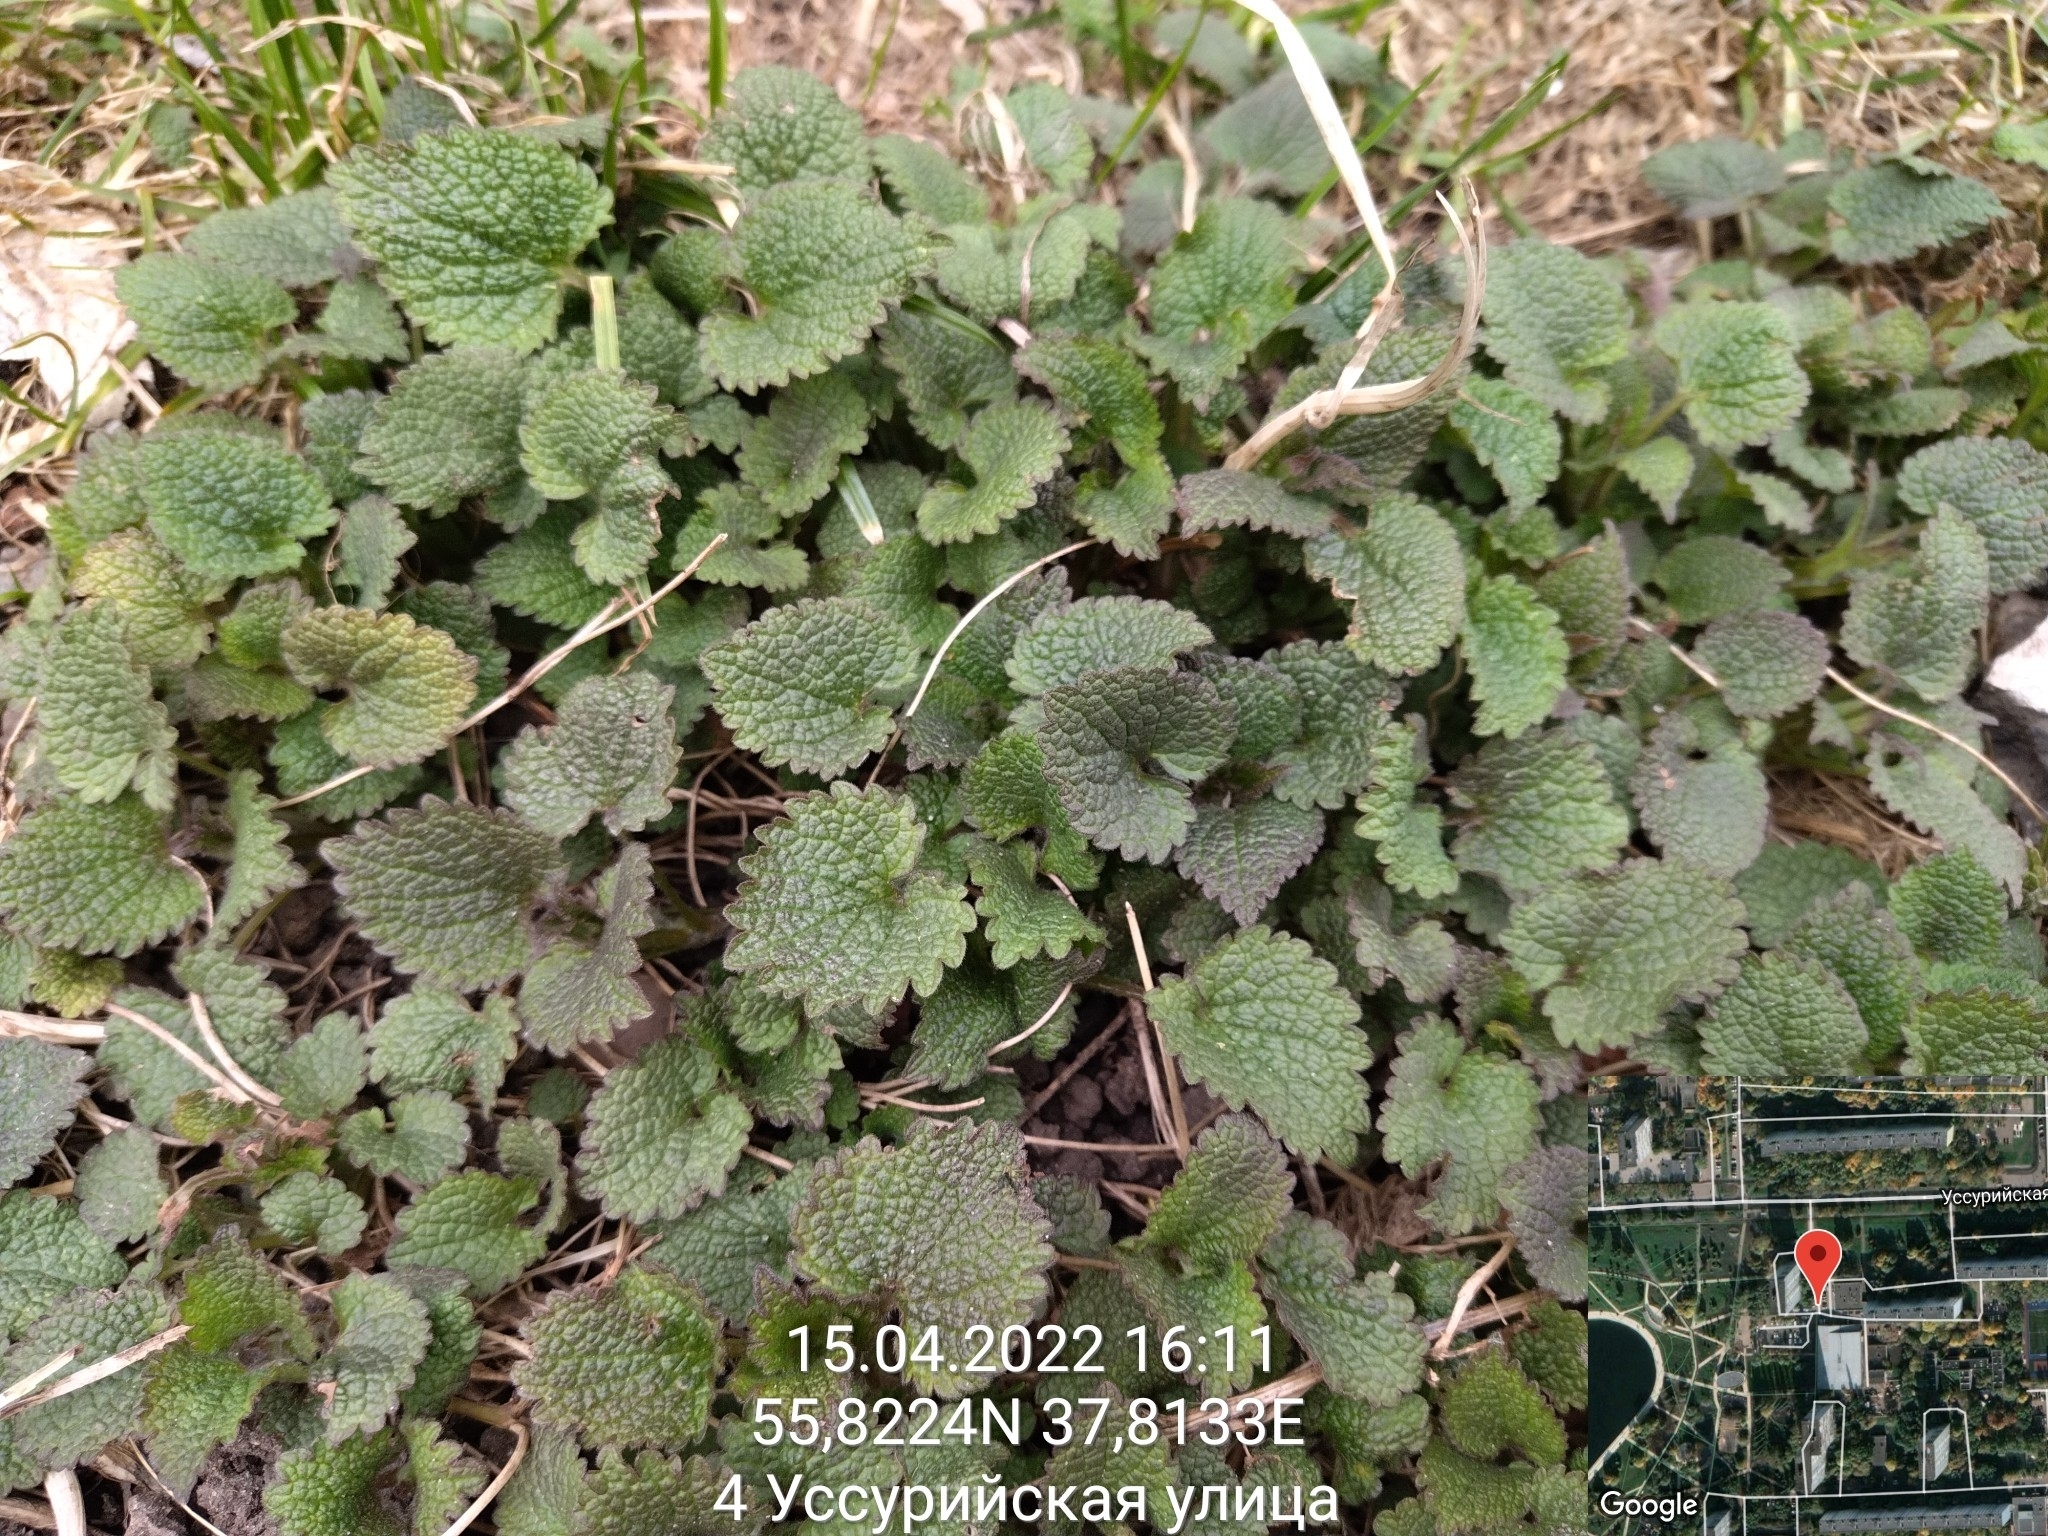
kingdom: Plantae
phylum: Tracheophyta
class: Magnoliopsida
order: Lamiales
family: Lamiaceae
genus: Lamium
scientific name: Lamium album
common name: White dead-nettle
